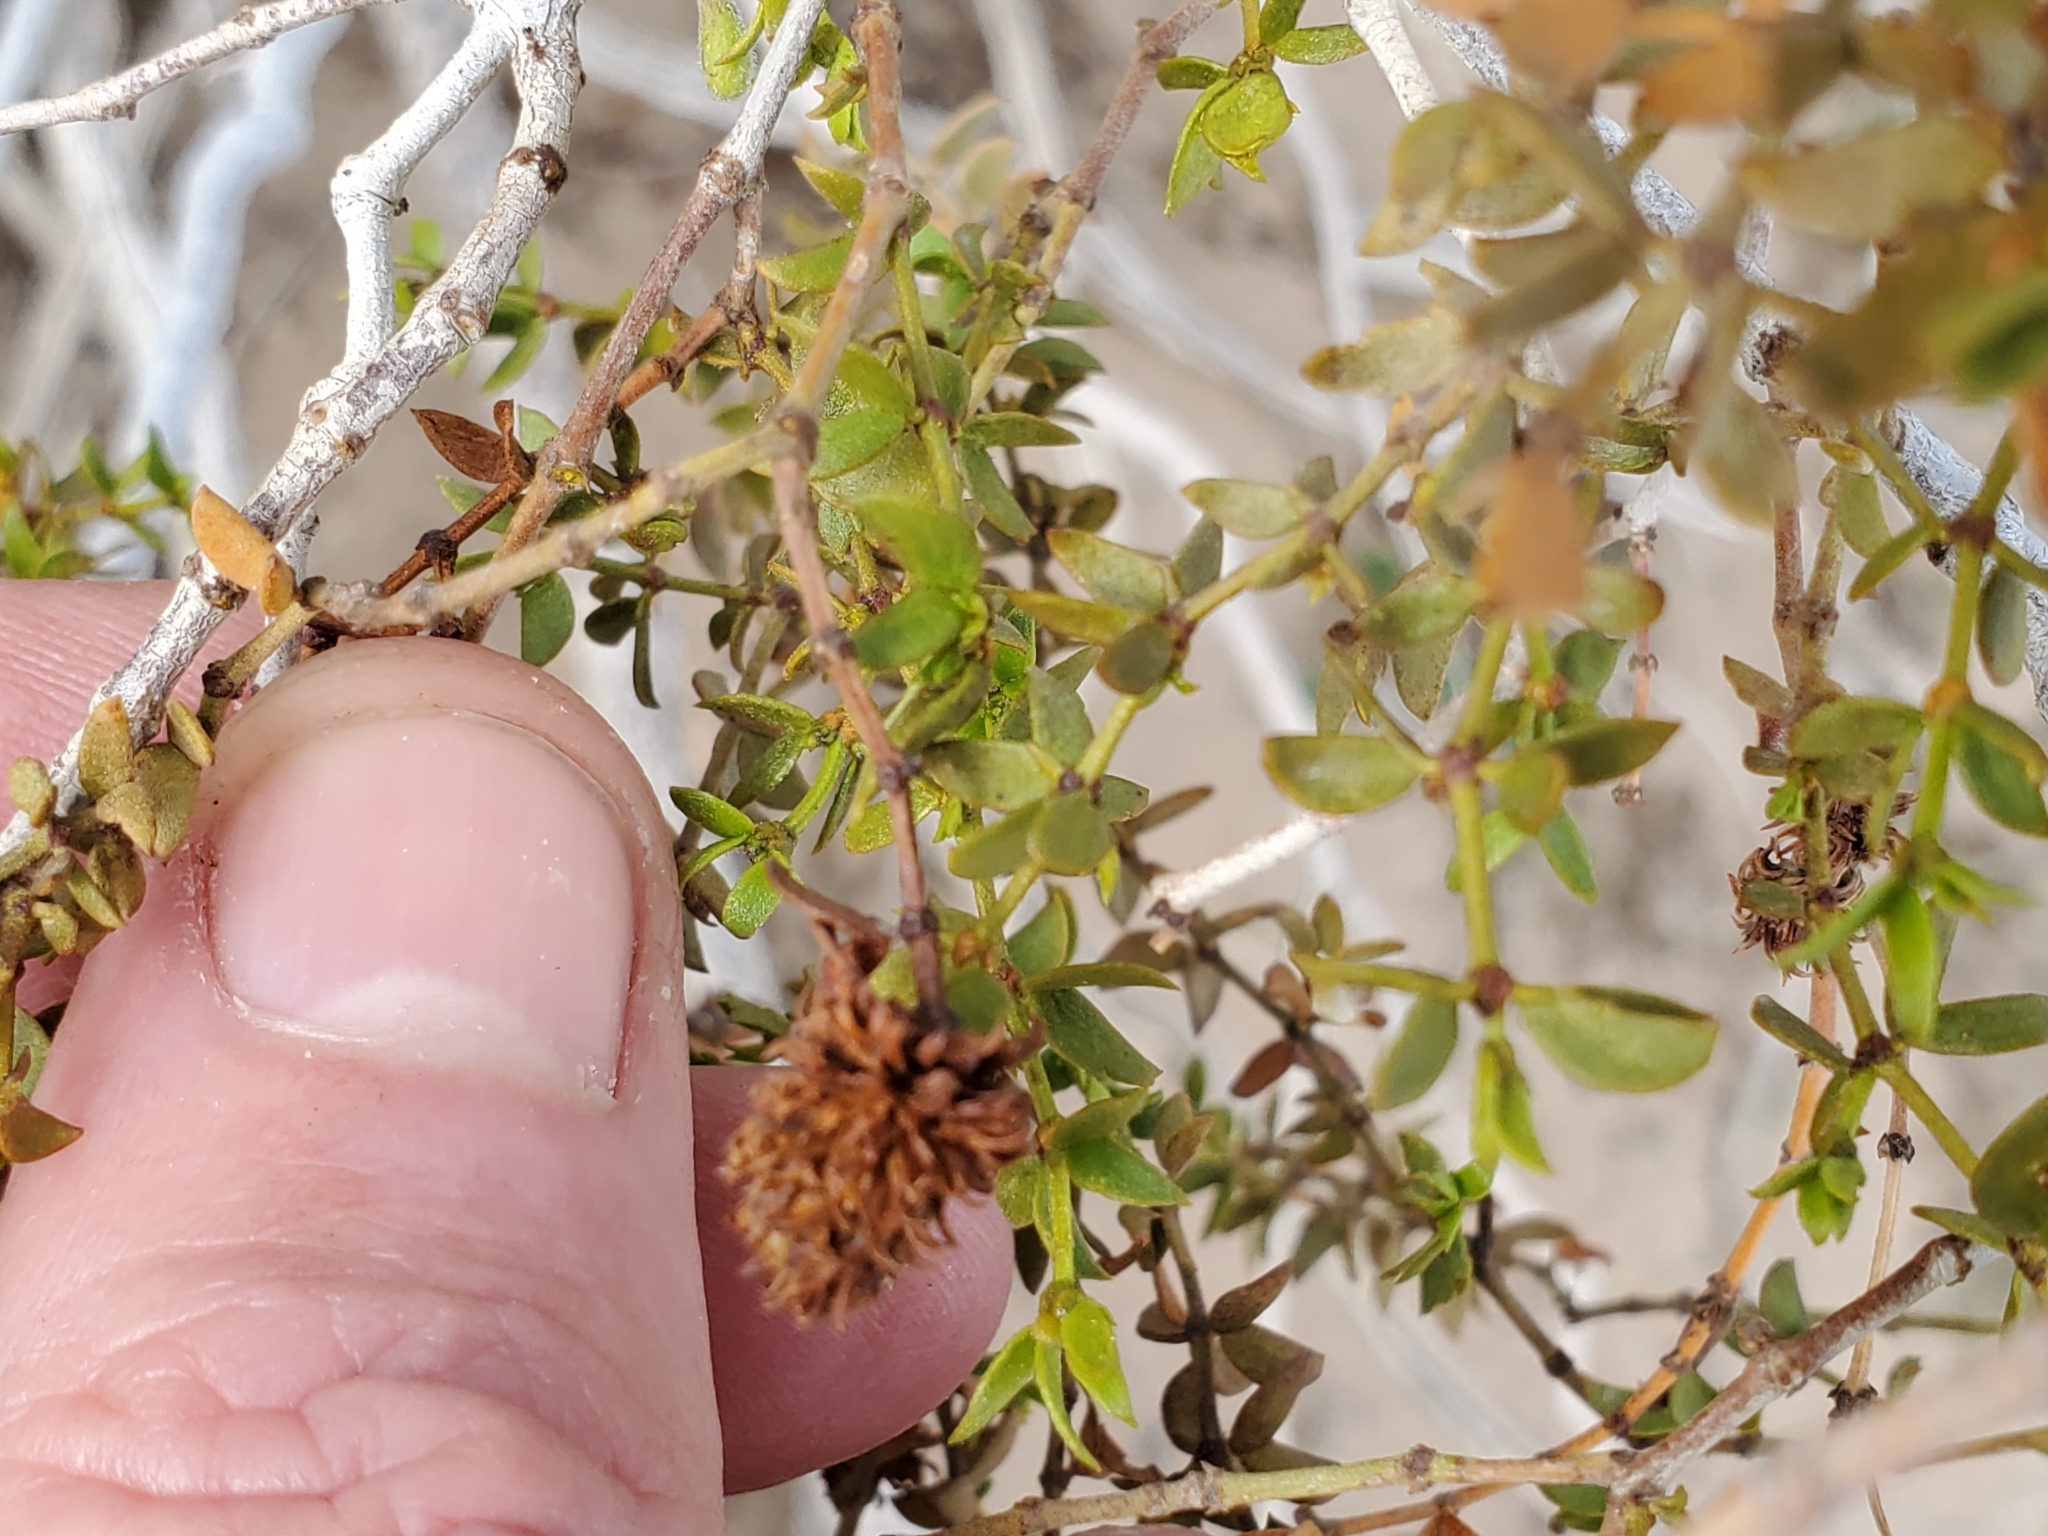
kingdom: Animalia
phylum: Arthropoda
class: Insecta
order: Diptera
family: Cecidomyiidae
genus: Asphondylia
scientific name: Asphondylia rosetta
